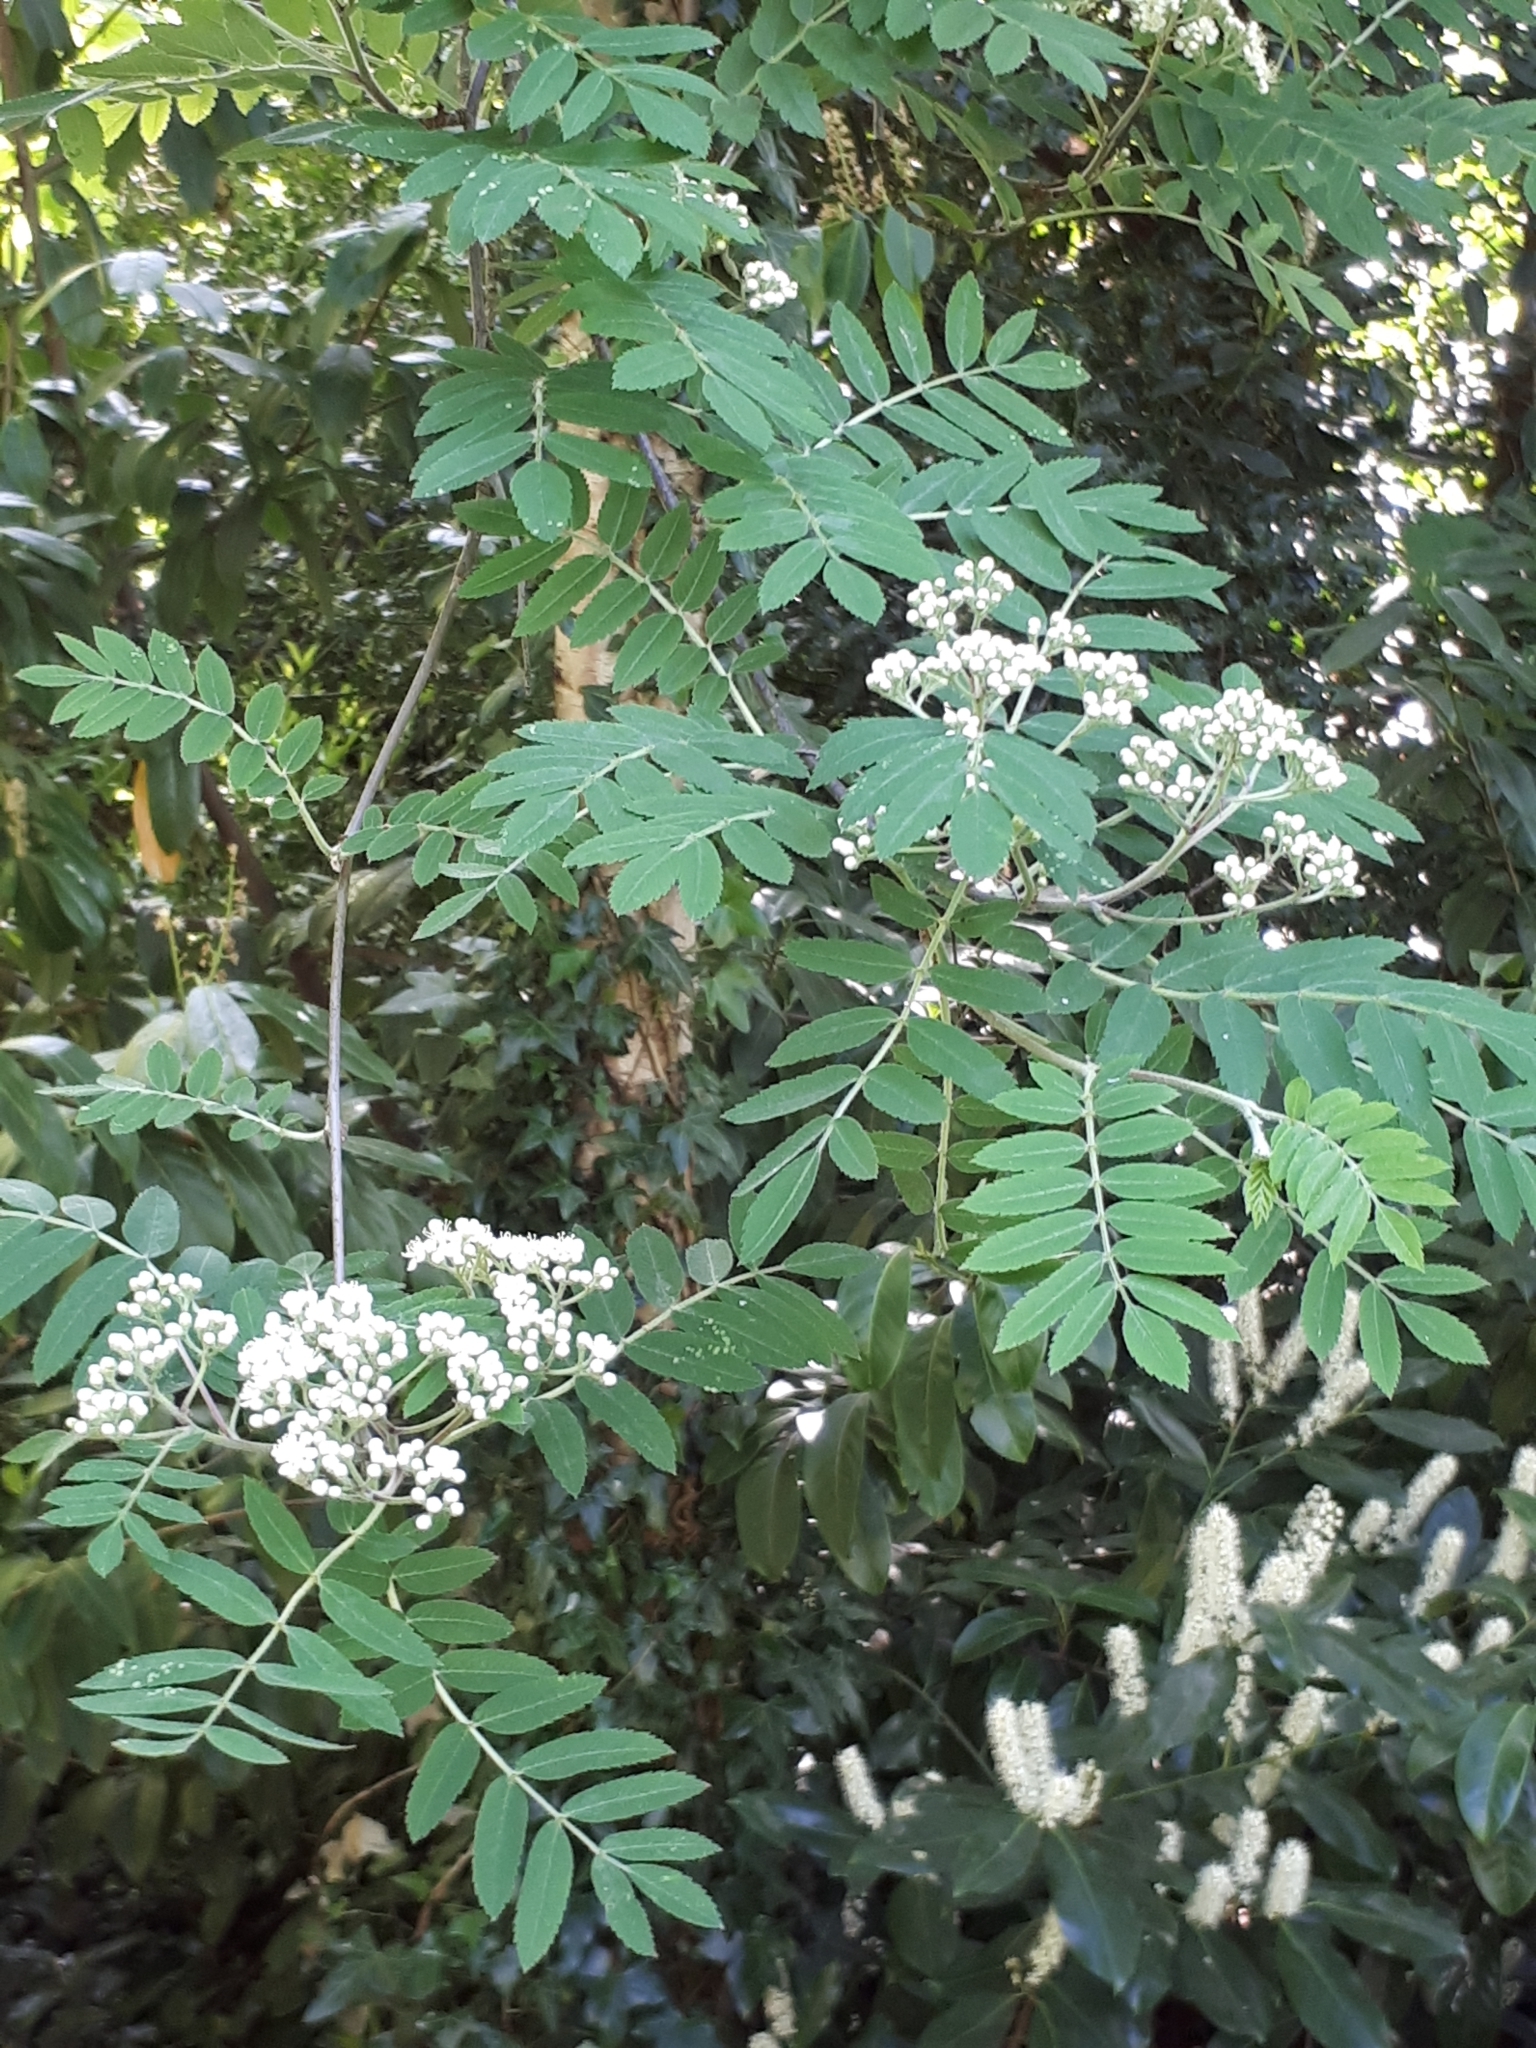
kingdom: Plantae
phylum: Tracheophyta
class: Magnoliopsida
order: Rosales
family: Rosaceae
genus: Sorbus
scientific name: Sorbus aucuparia
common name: Rowan
